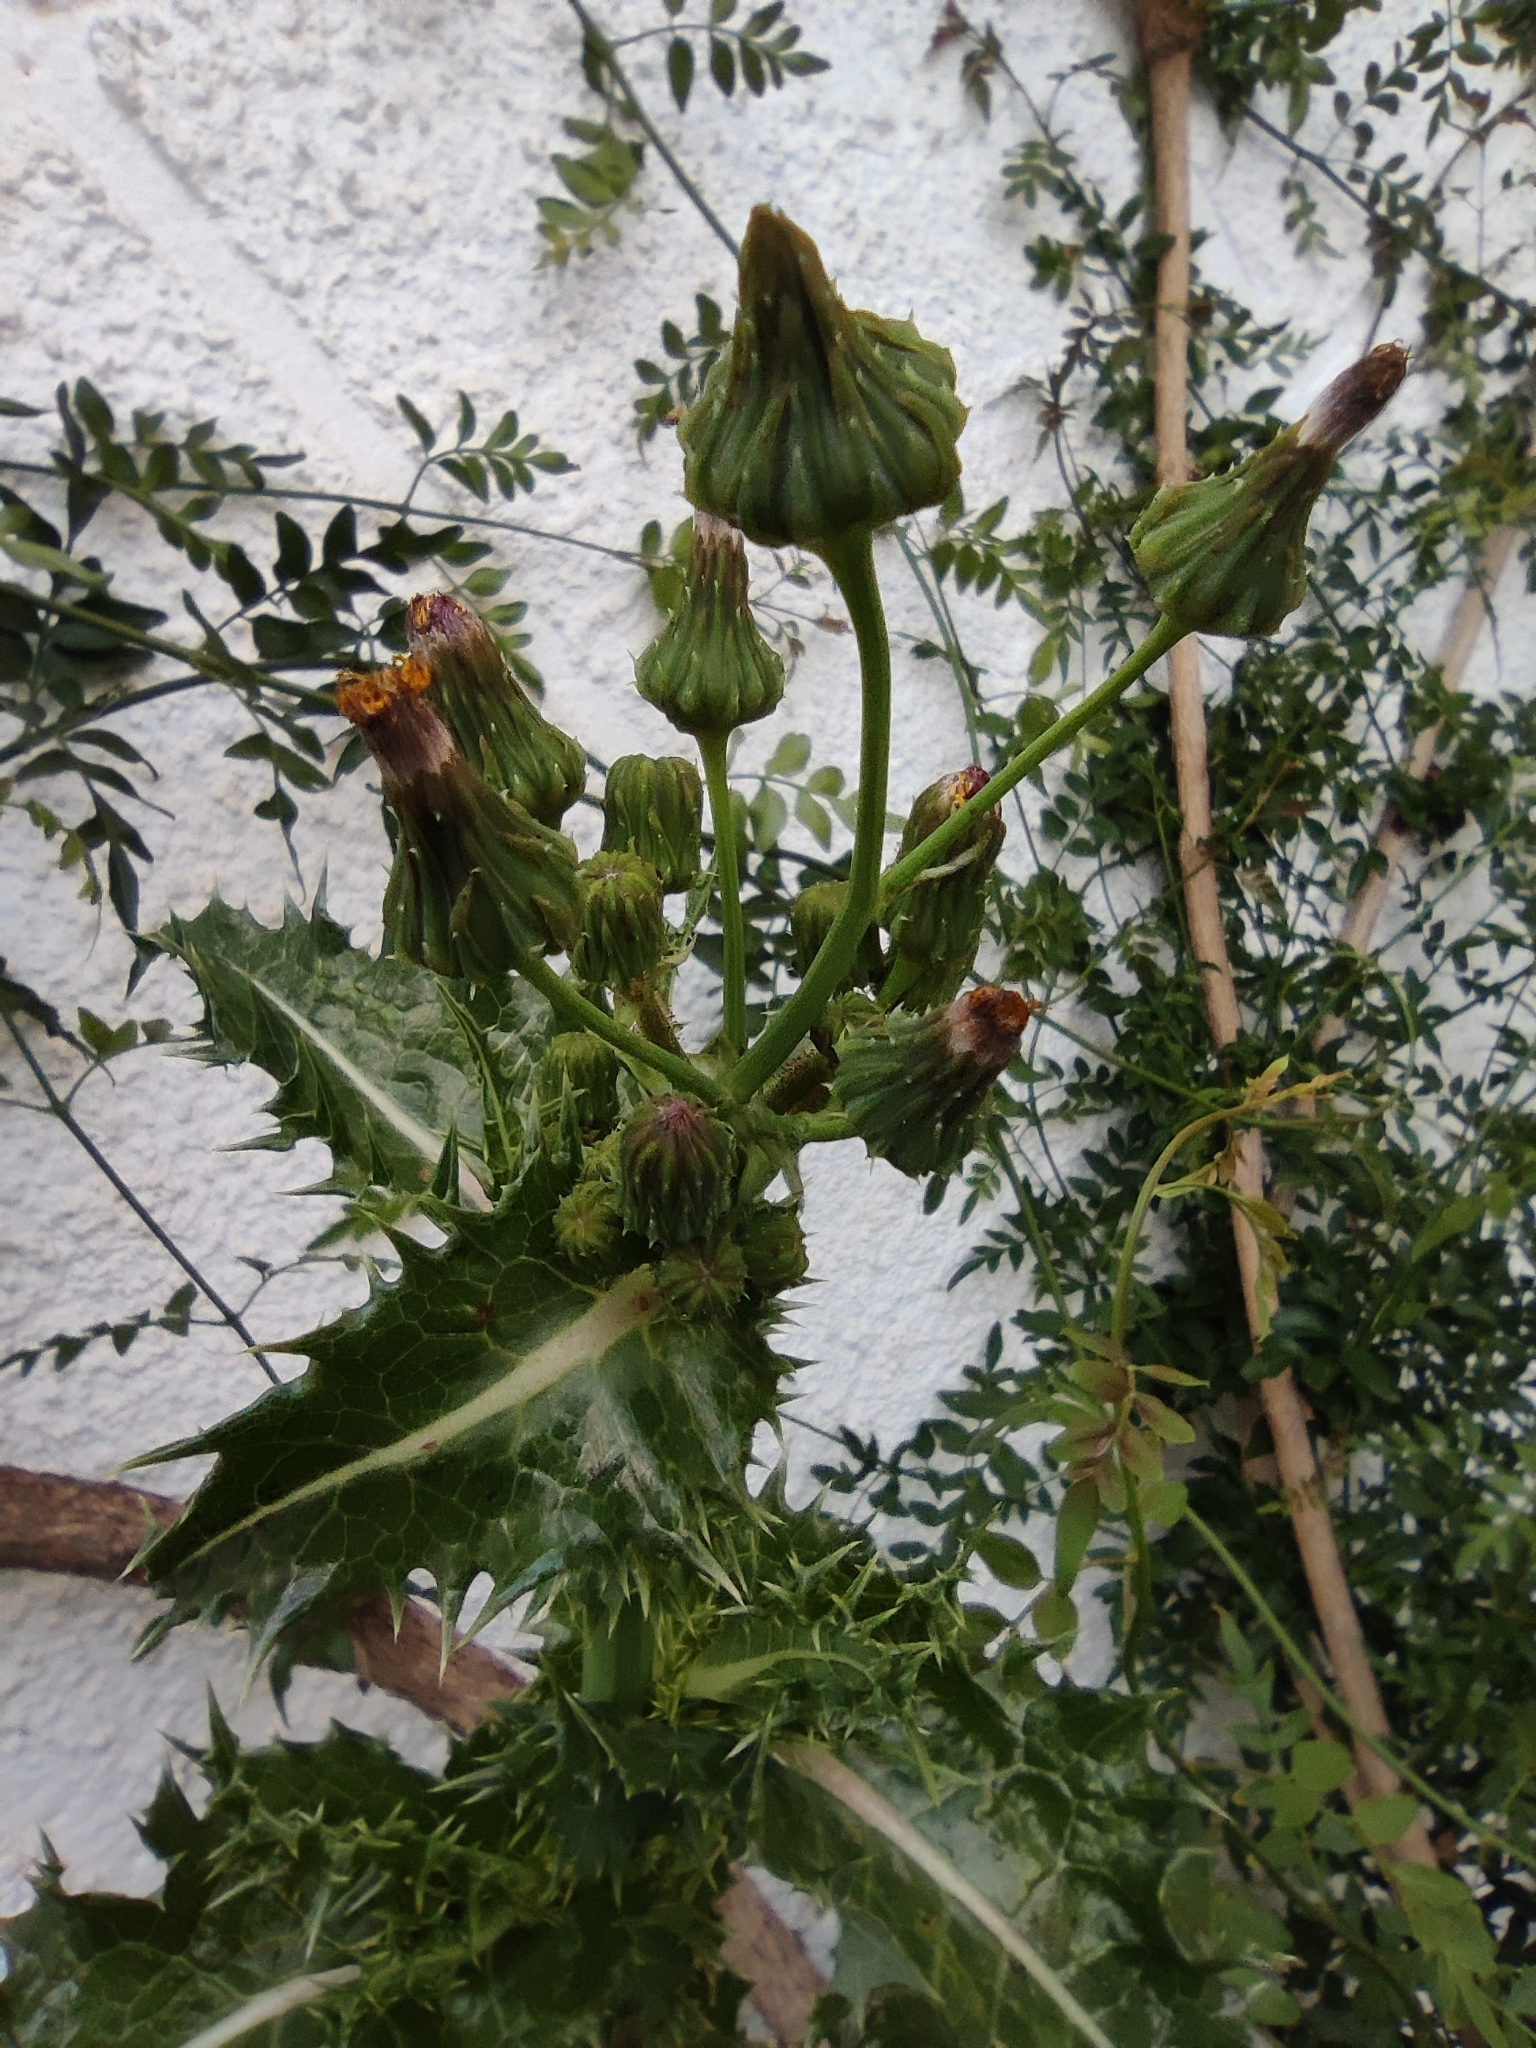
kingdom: Plantae
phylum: Tracheophyta
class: Magnoliopsida
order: Asterales
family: Asteraceae
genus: Sonchus
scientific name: Sonchus asper
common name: Prickly sow-thistle
